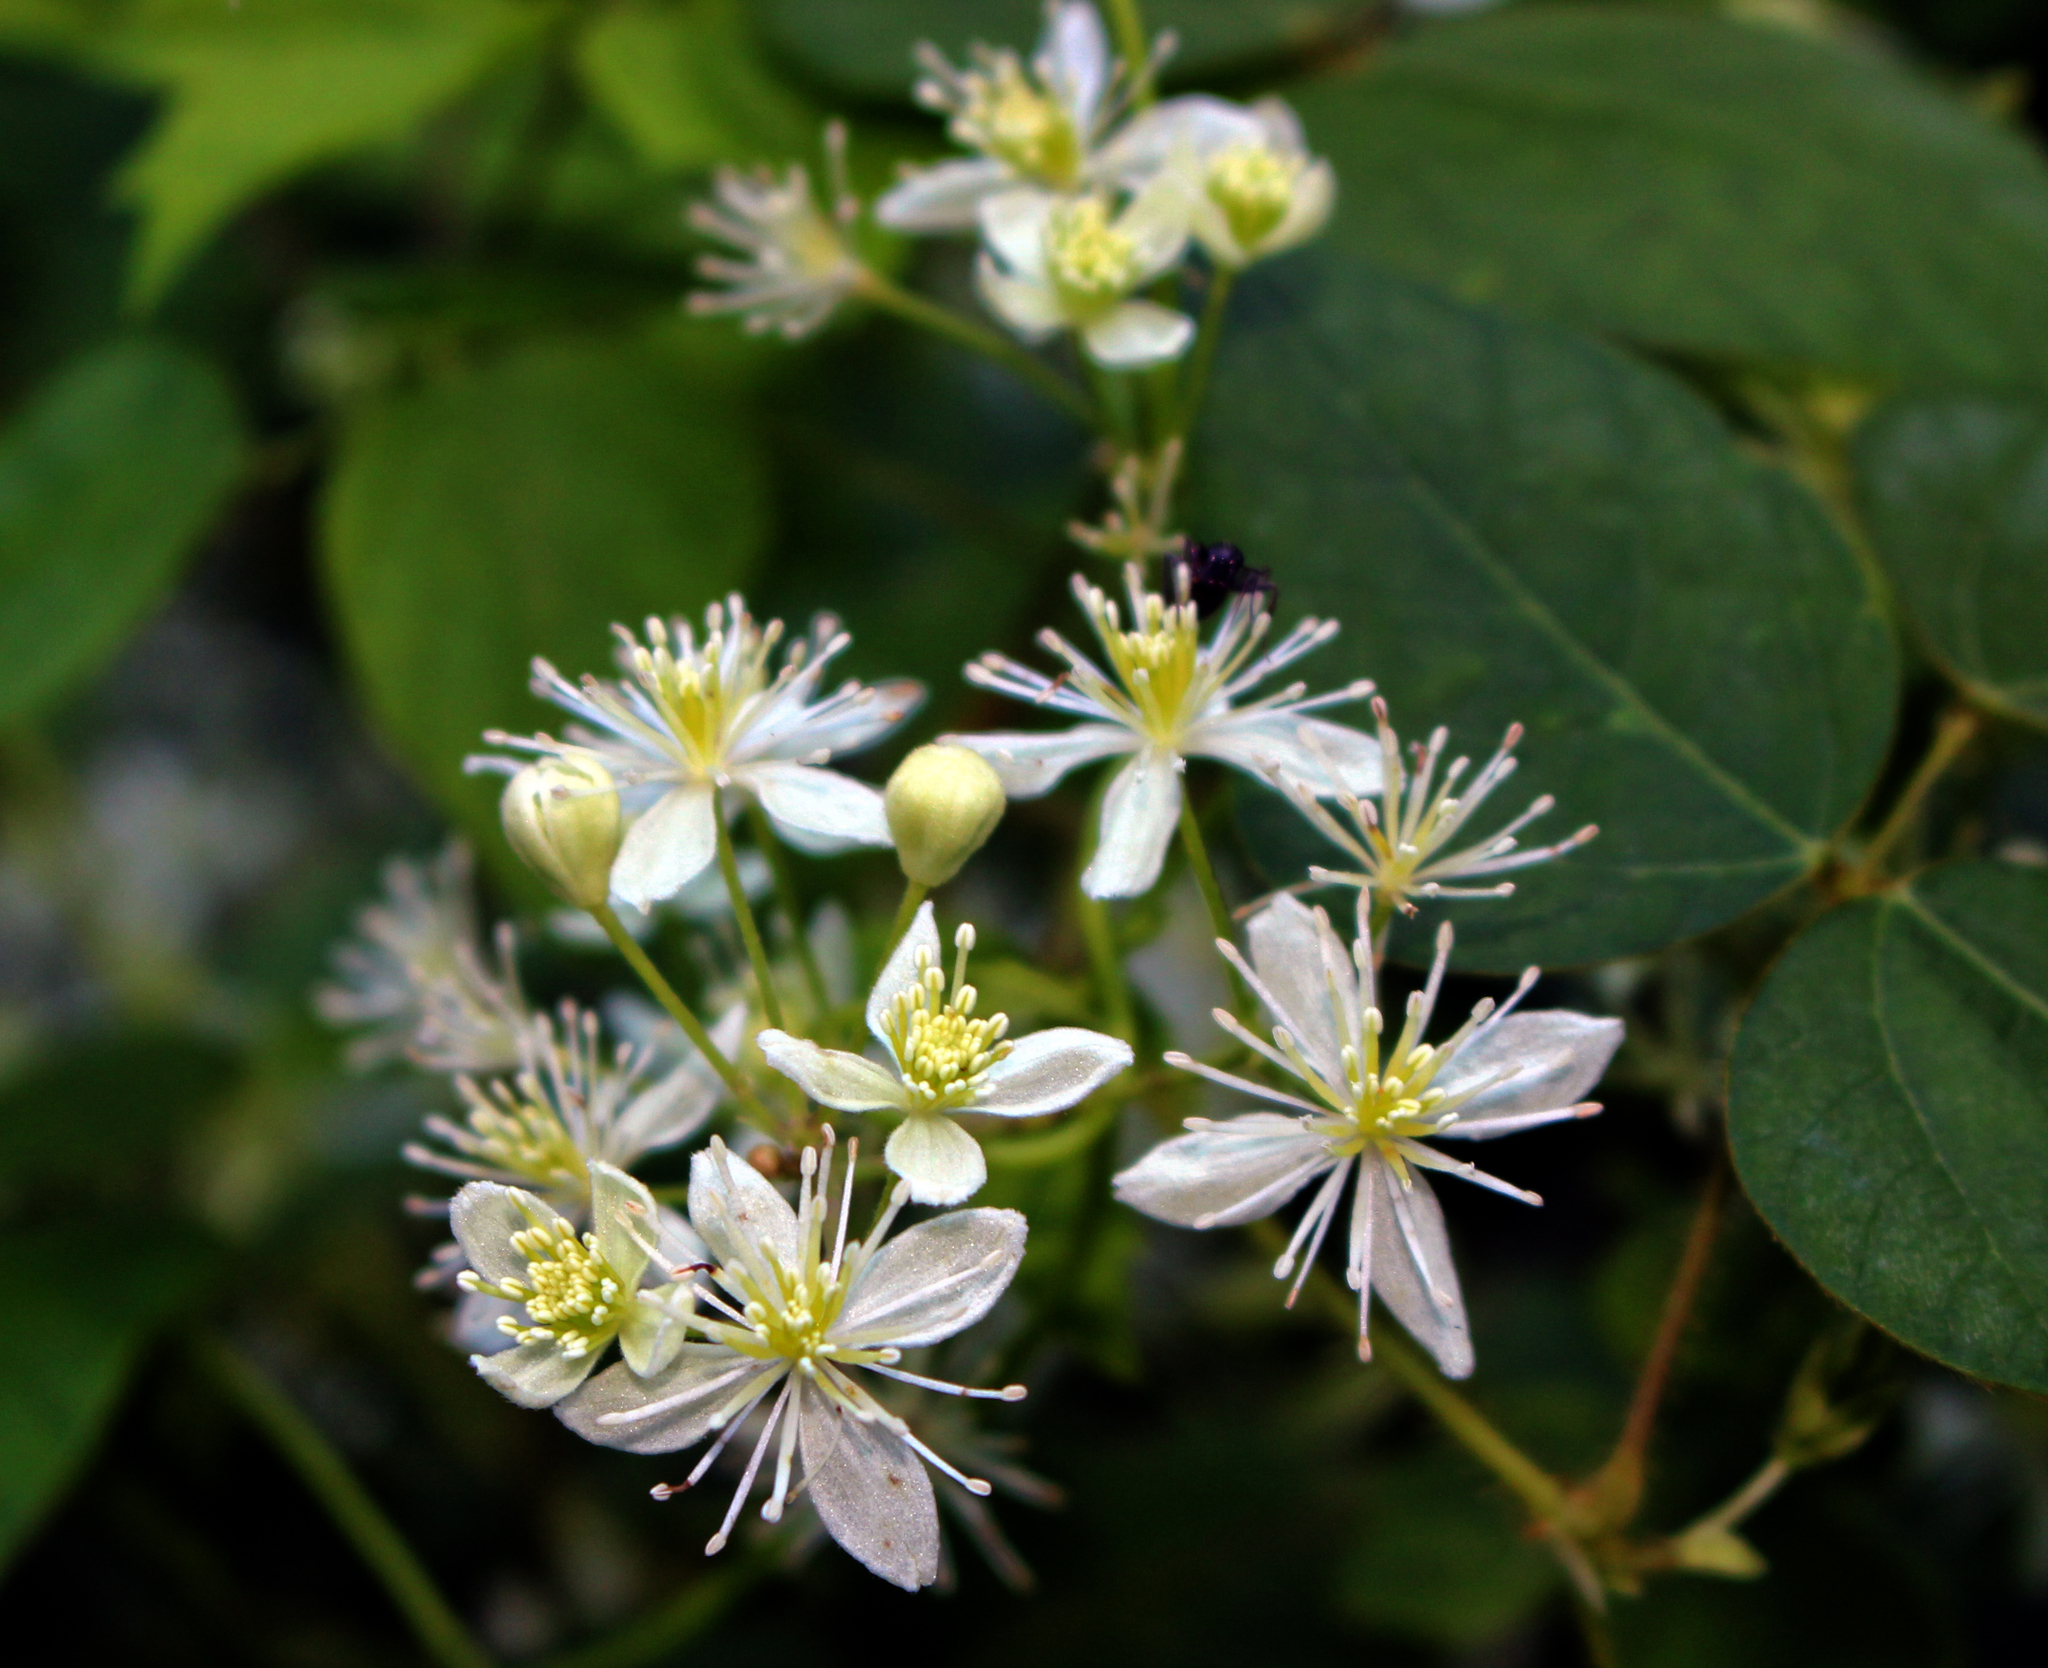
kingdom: Plantae
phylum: Tracheophyta
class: Magnoliopsida
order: Ranunculales
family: Ranunculaceae
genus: Clematis
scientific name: Clematis virginiana
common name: Virgin's-bower
